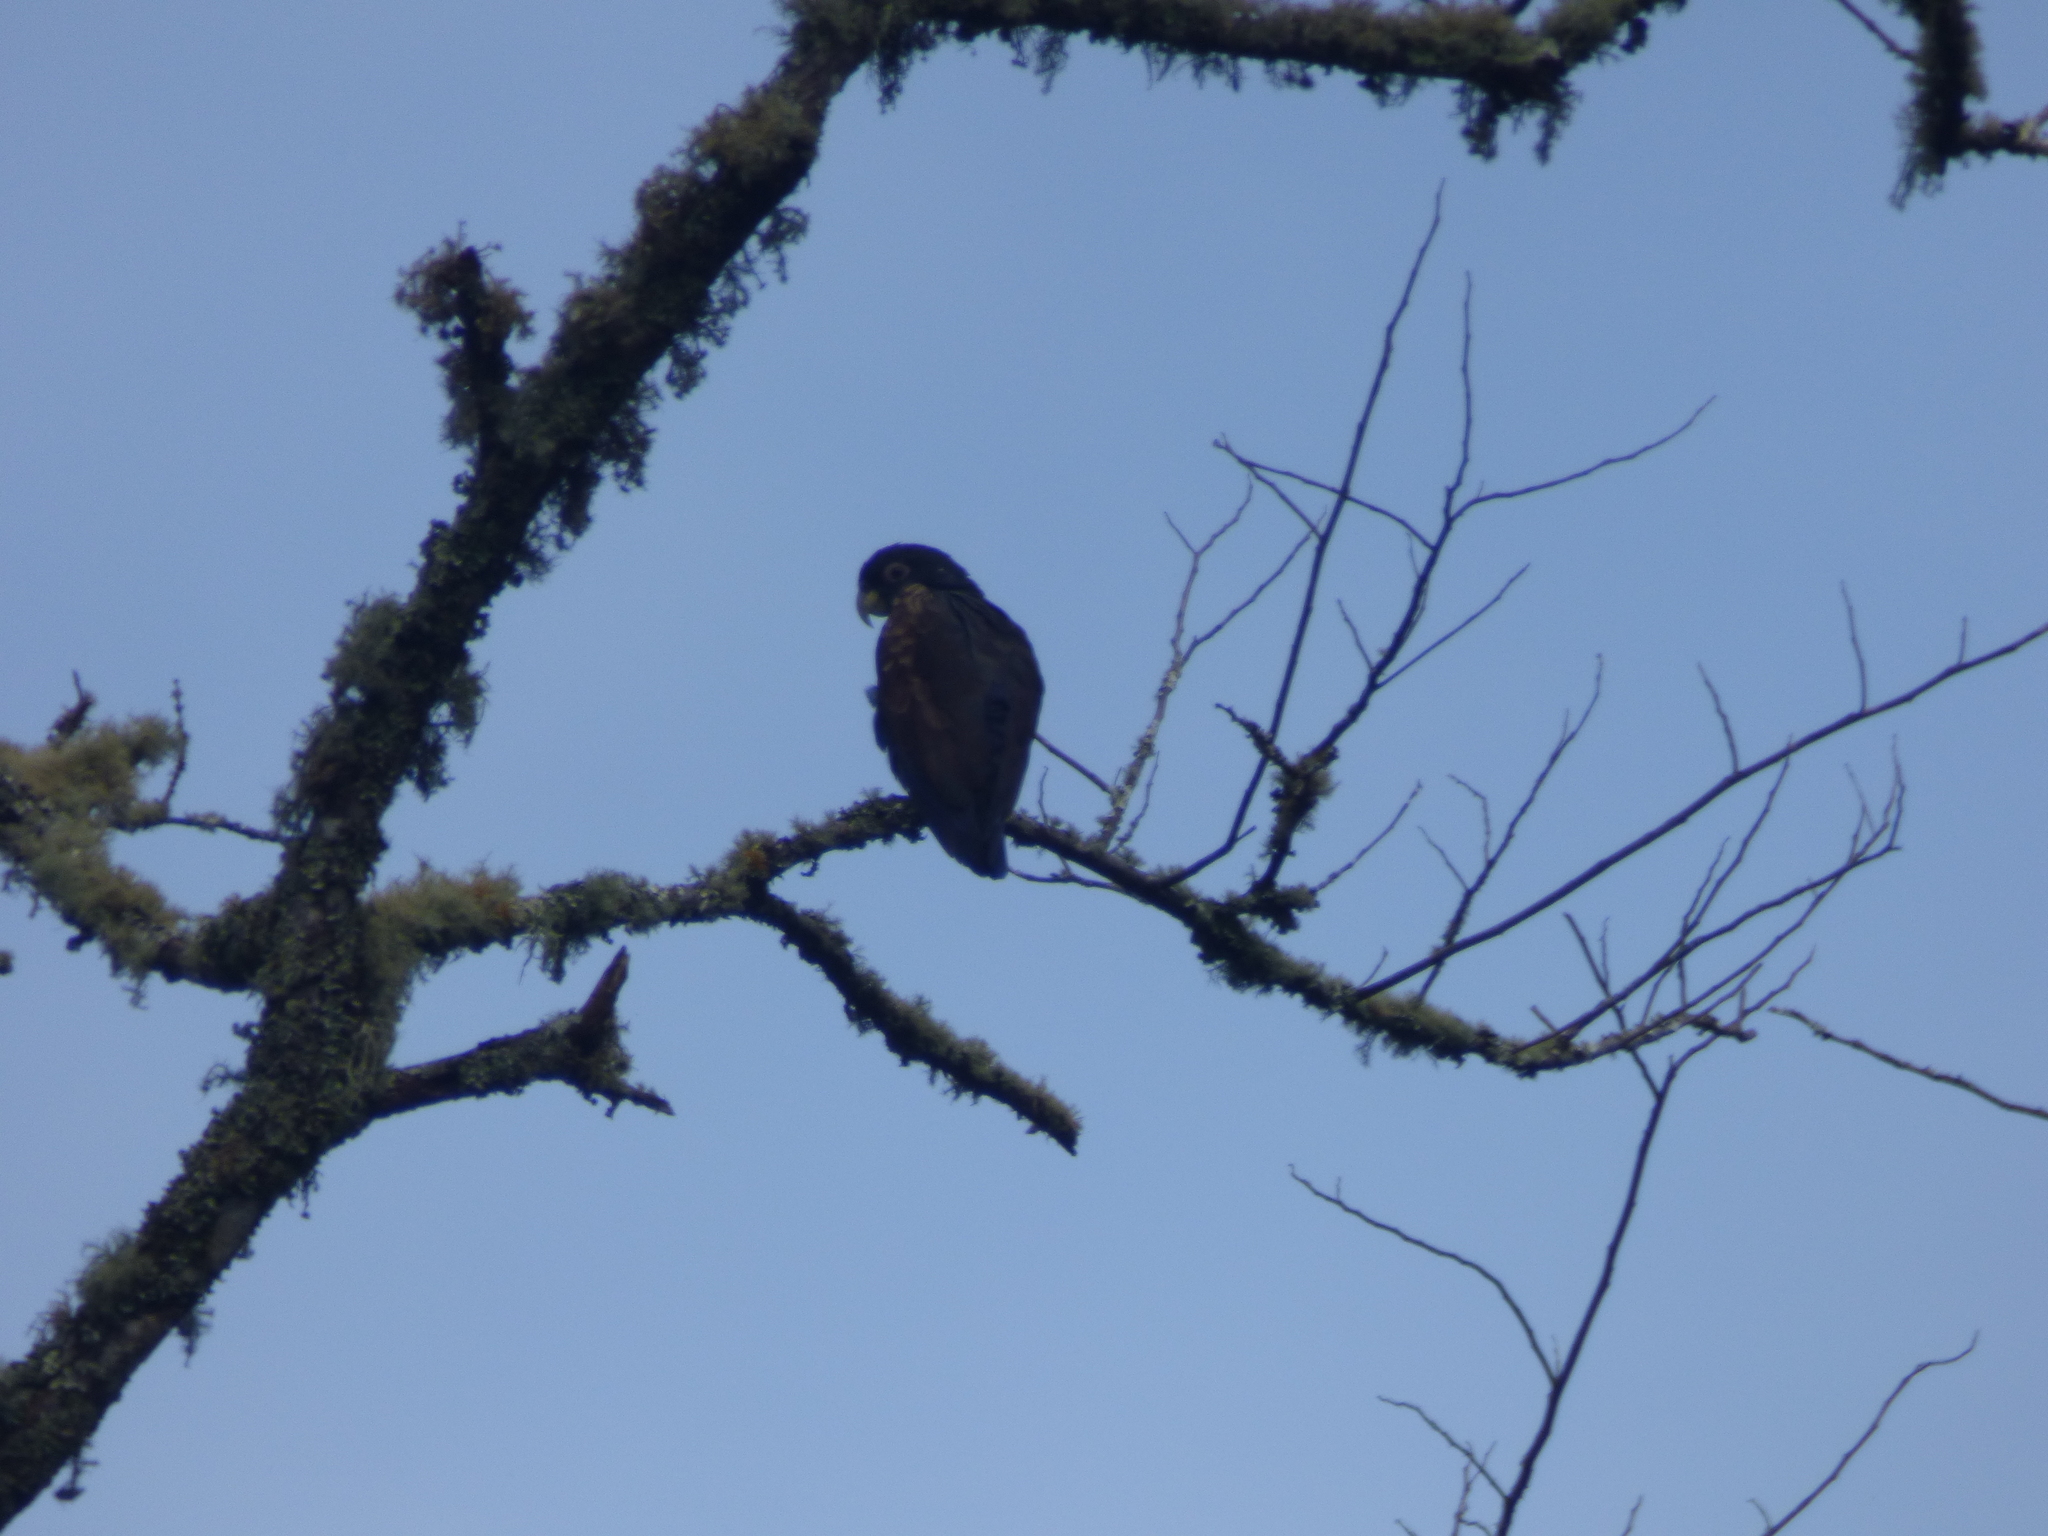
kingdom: Animalia
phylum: Chordata
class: Aves
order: Psittaciformes
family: Psittacidae
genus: Pionus
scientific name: Pionus chalcopterus
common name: Bronze-winged parrot
